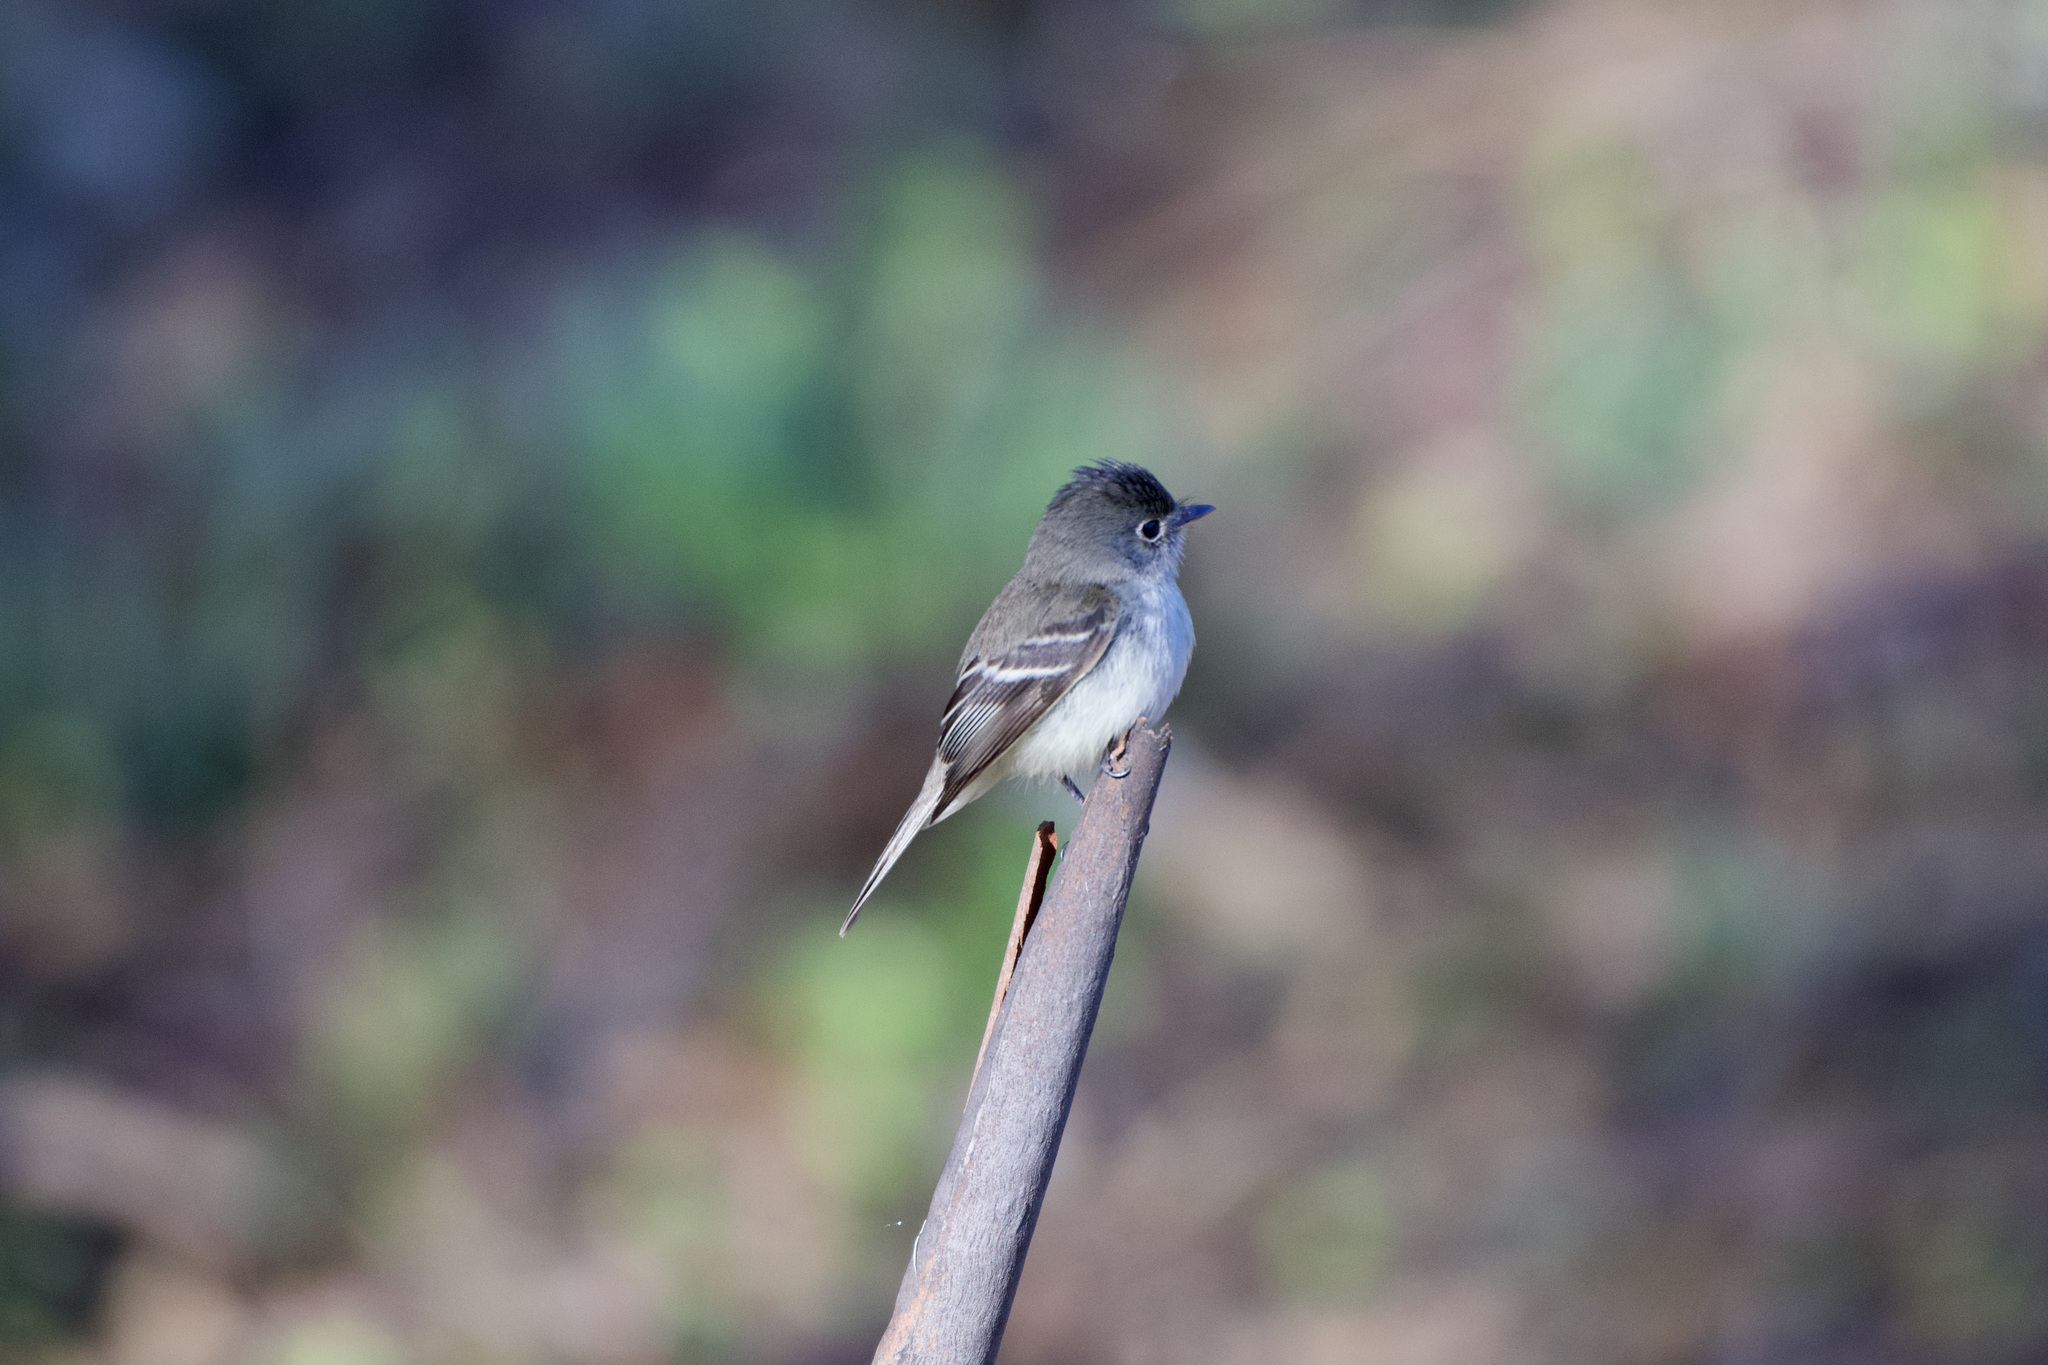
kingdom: Animalia
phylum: Chordata
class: Aves
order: Passeriformes
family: Tyrannidae
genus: Empidonax
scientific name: Empidonax minimus
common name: Least flycatcher
